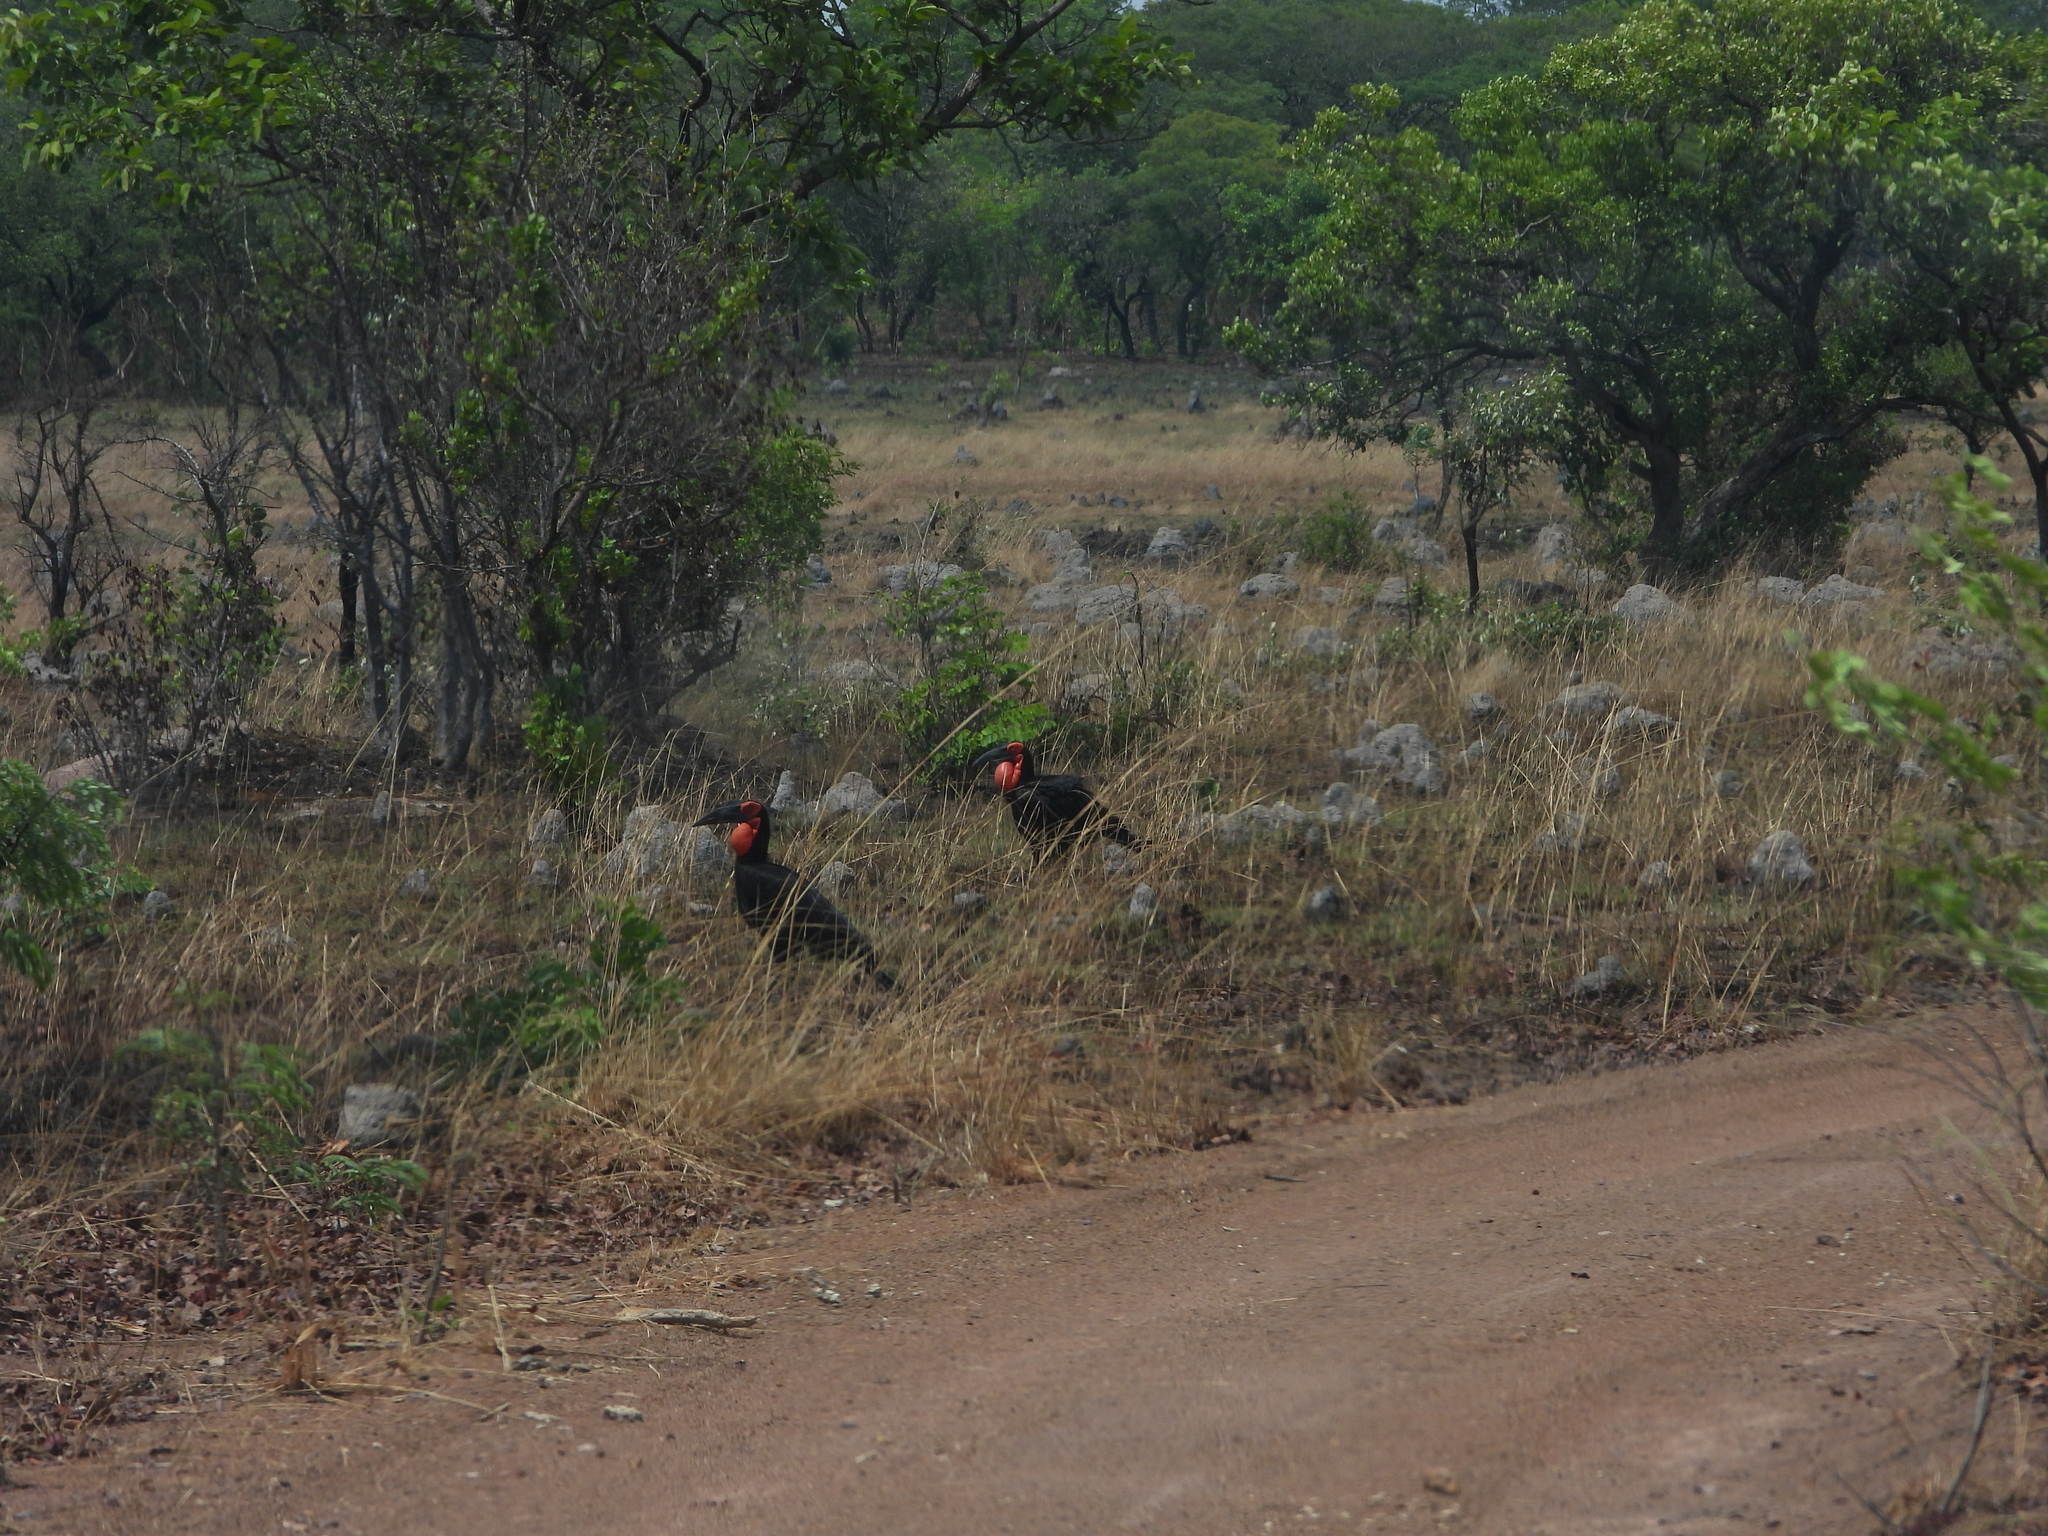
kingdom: Animalia
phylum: Chordata
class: Aves
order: Bucerotiformes
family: Bucorvidae
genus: Bucorvus
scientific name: Bucorvus leadbeateri
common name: Southern ground-hornbill
